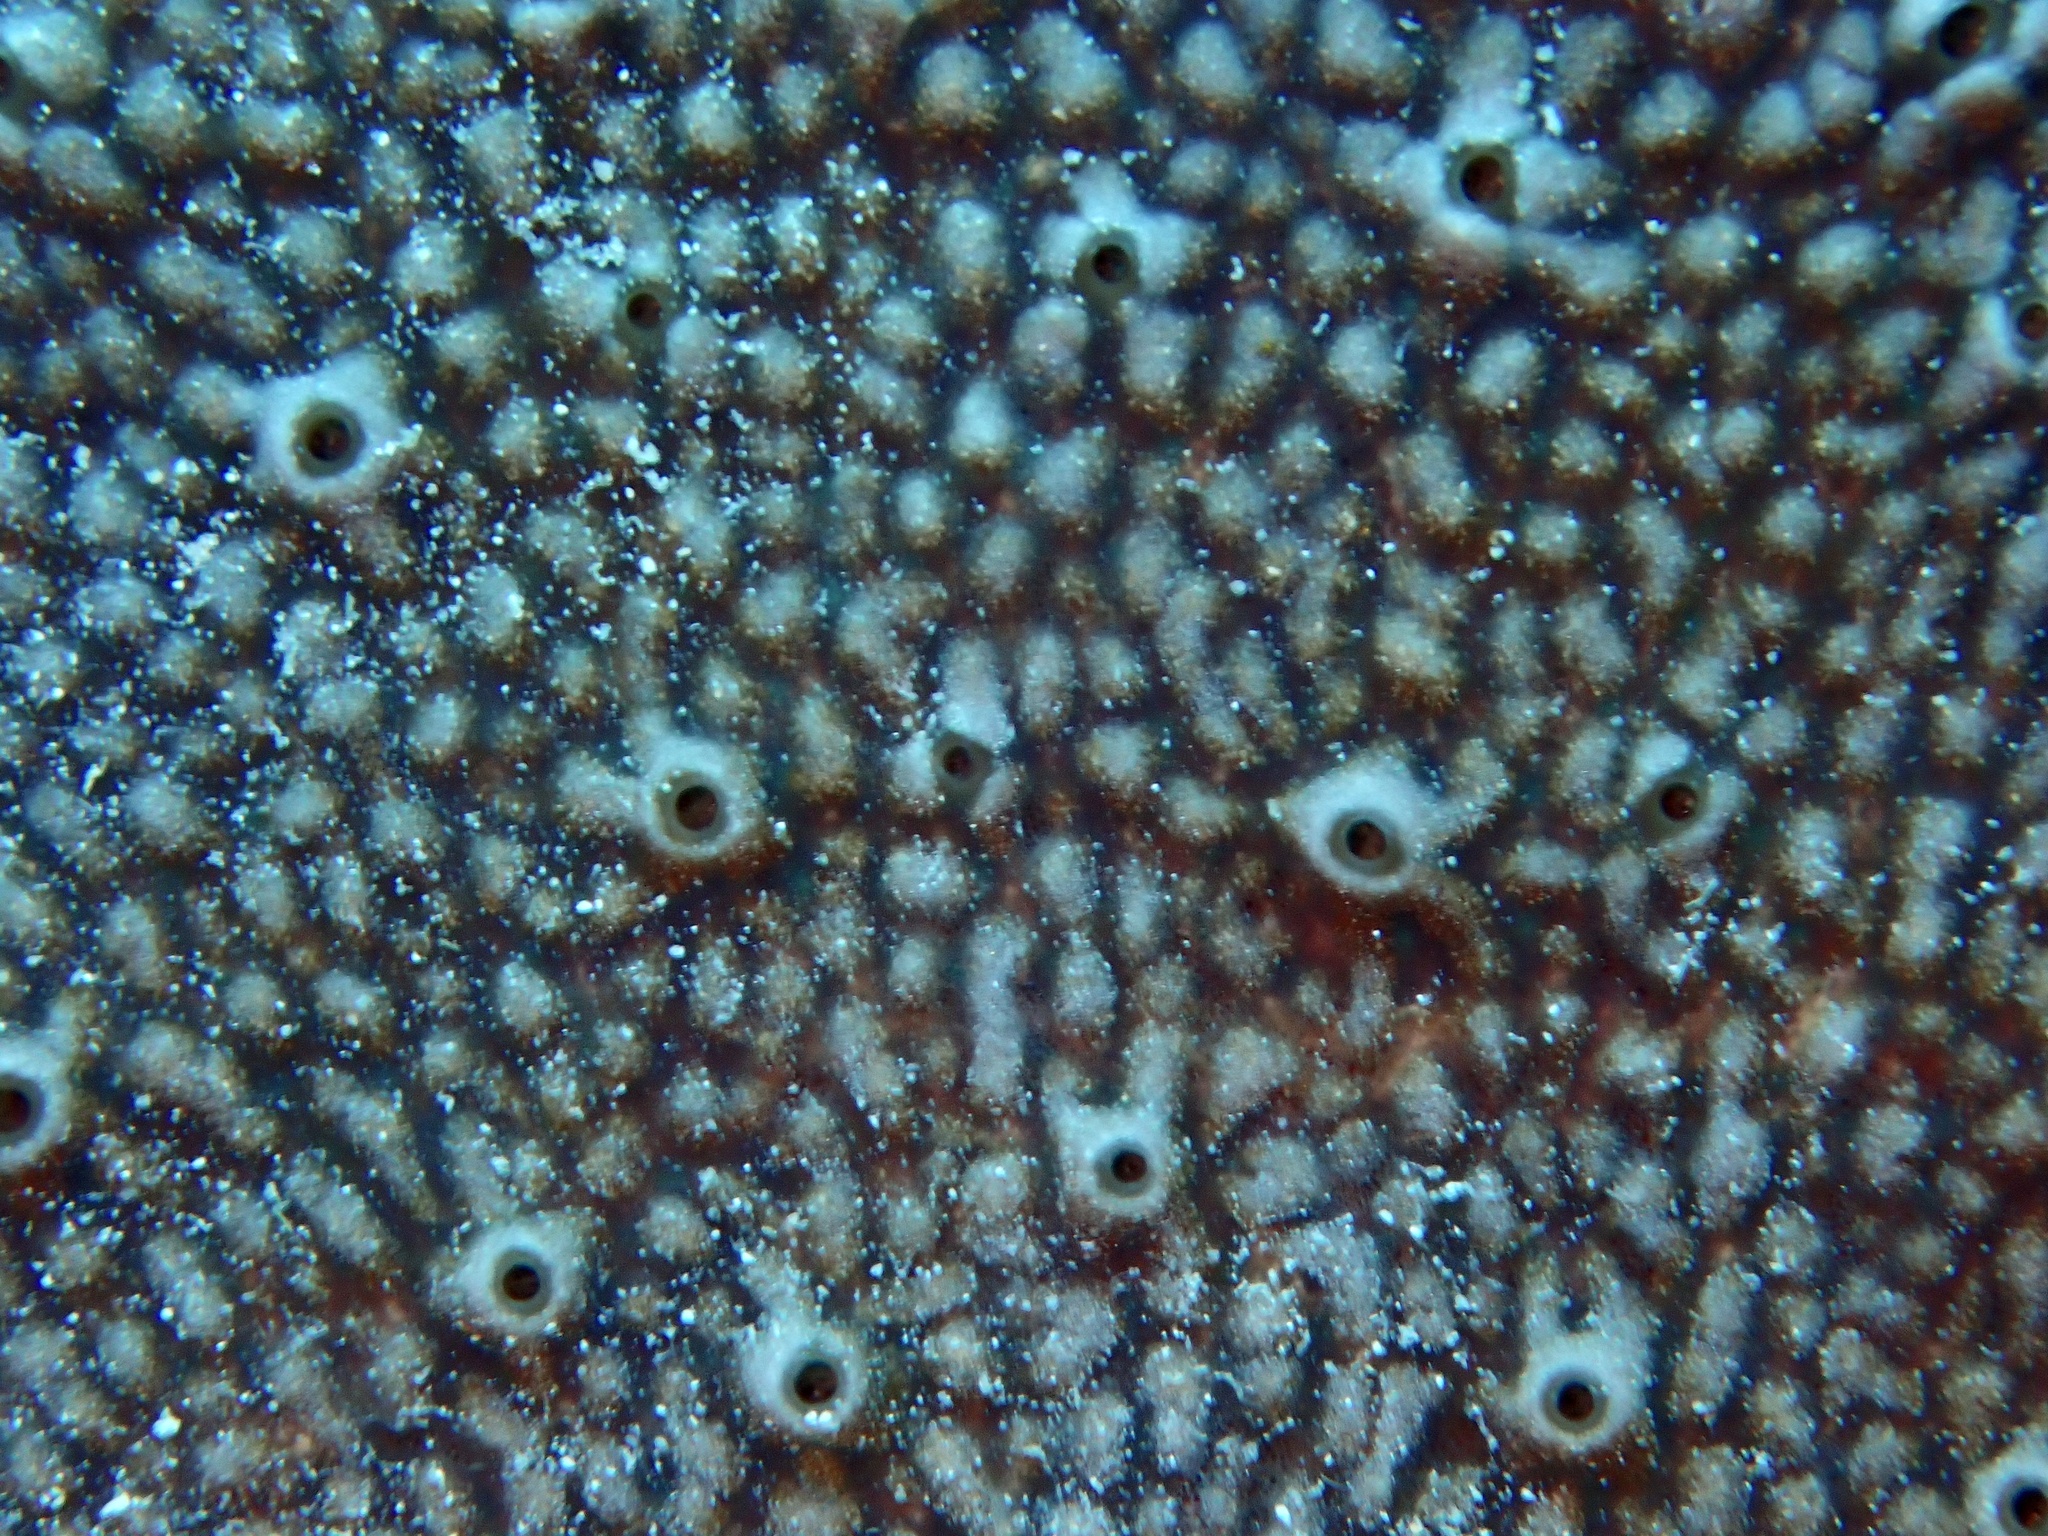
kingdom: Animalia
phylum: Porifera
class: Demospongiae
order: Dictyoceratida
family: Thorectidae
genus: Phyllospongia
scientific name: Phyllospongia foliascens
